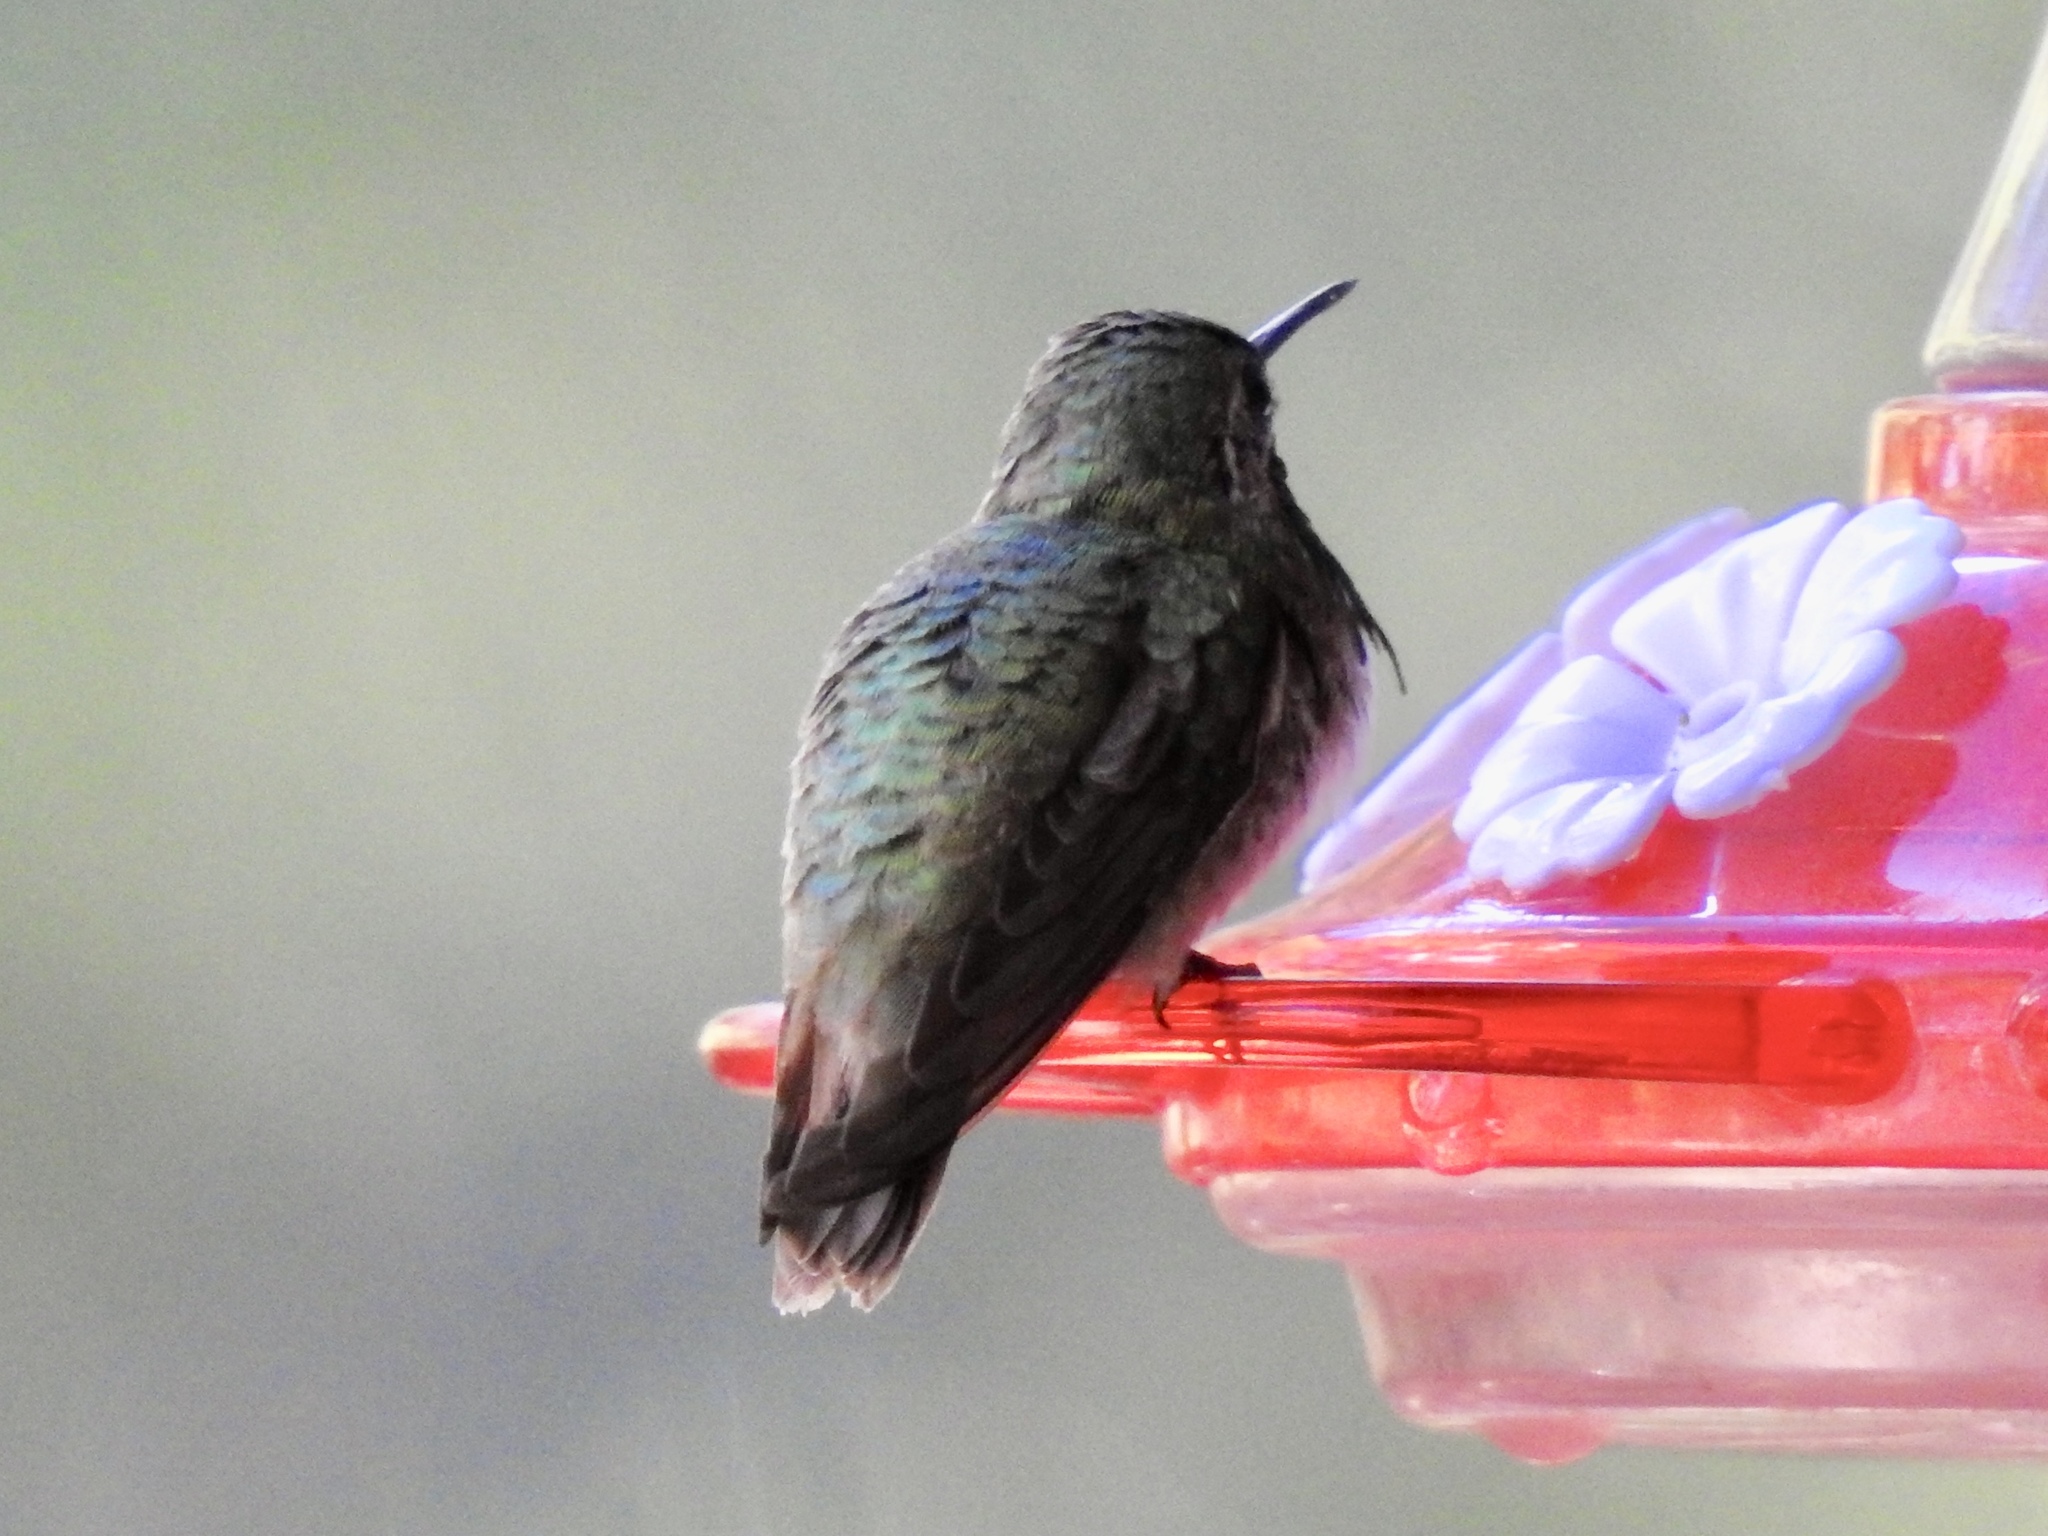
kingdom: Animalia
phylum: Chordata
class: Aves
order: Apodiformes
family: Trochilidae
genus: Selasphorus
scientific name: Selasphorus calliope
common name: Calliope hummingbird
